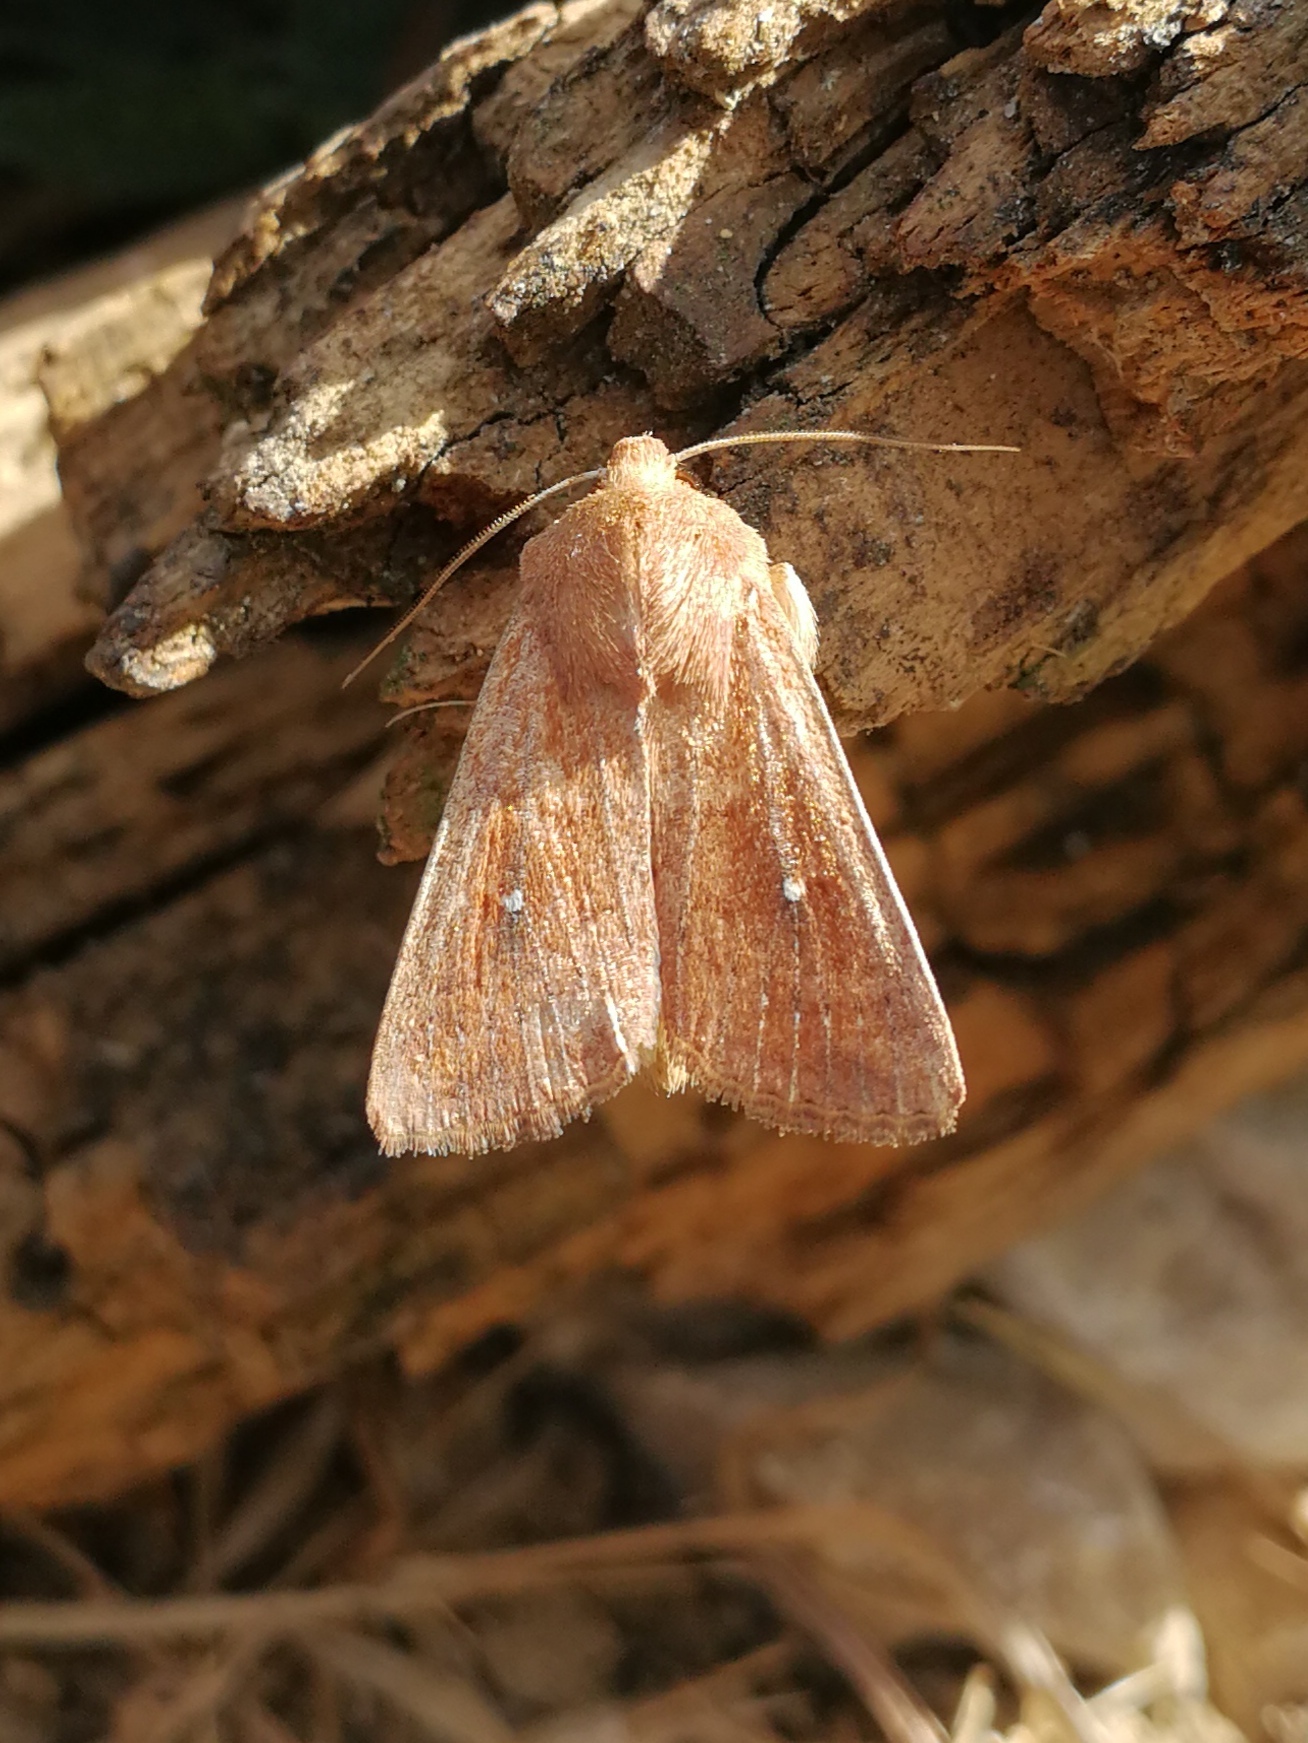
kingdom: Animalia
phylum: Arthropoda
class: Insecta
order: Lepidoptera
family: Noctuidae
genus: Mythimna
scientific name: Mythimna albipuncta
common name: White-point
